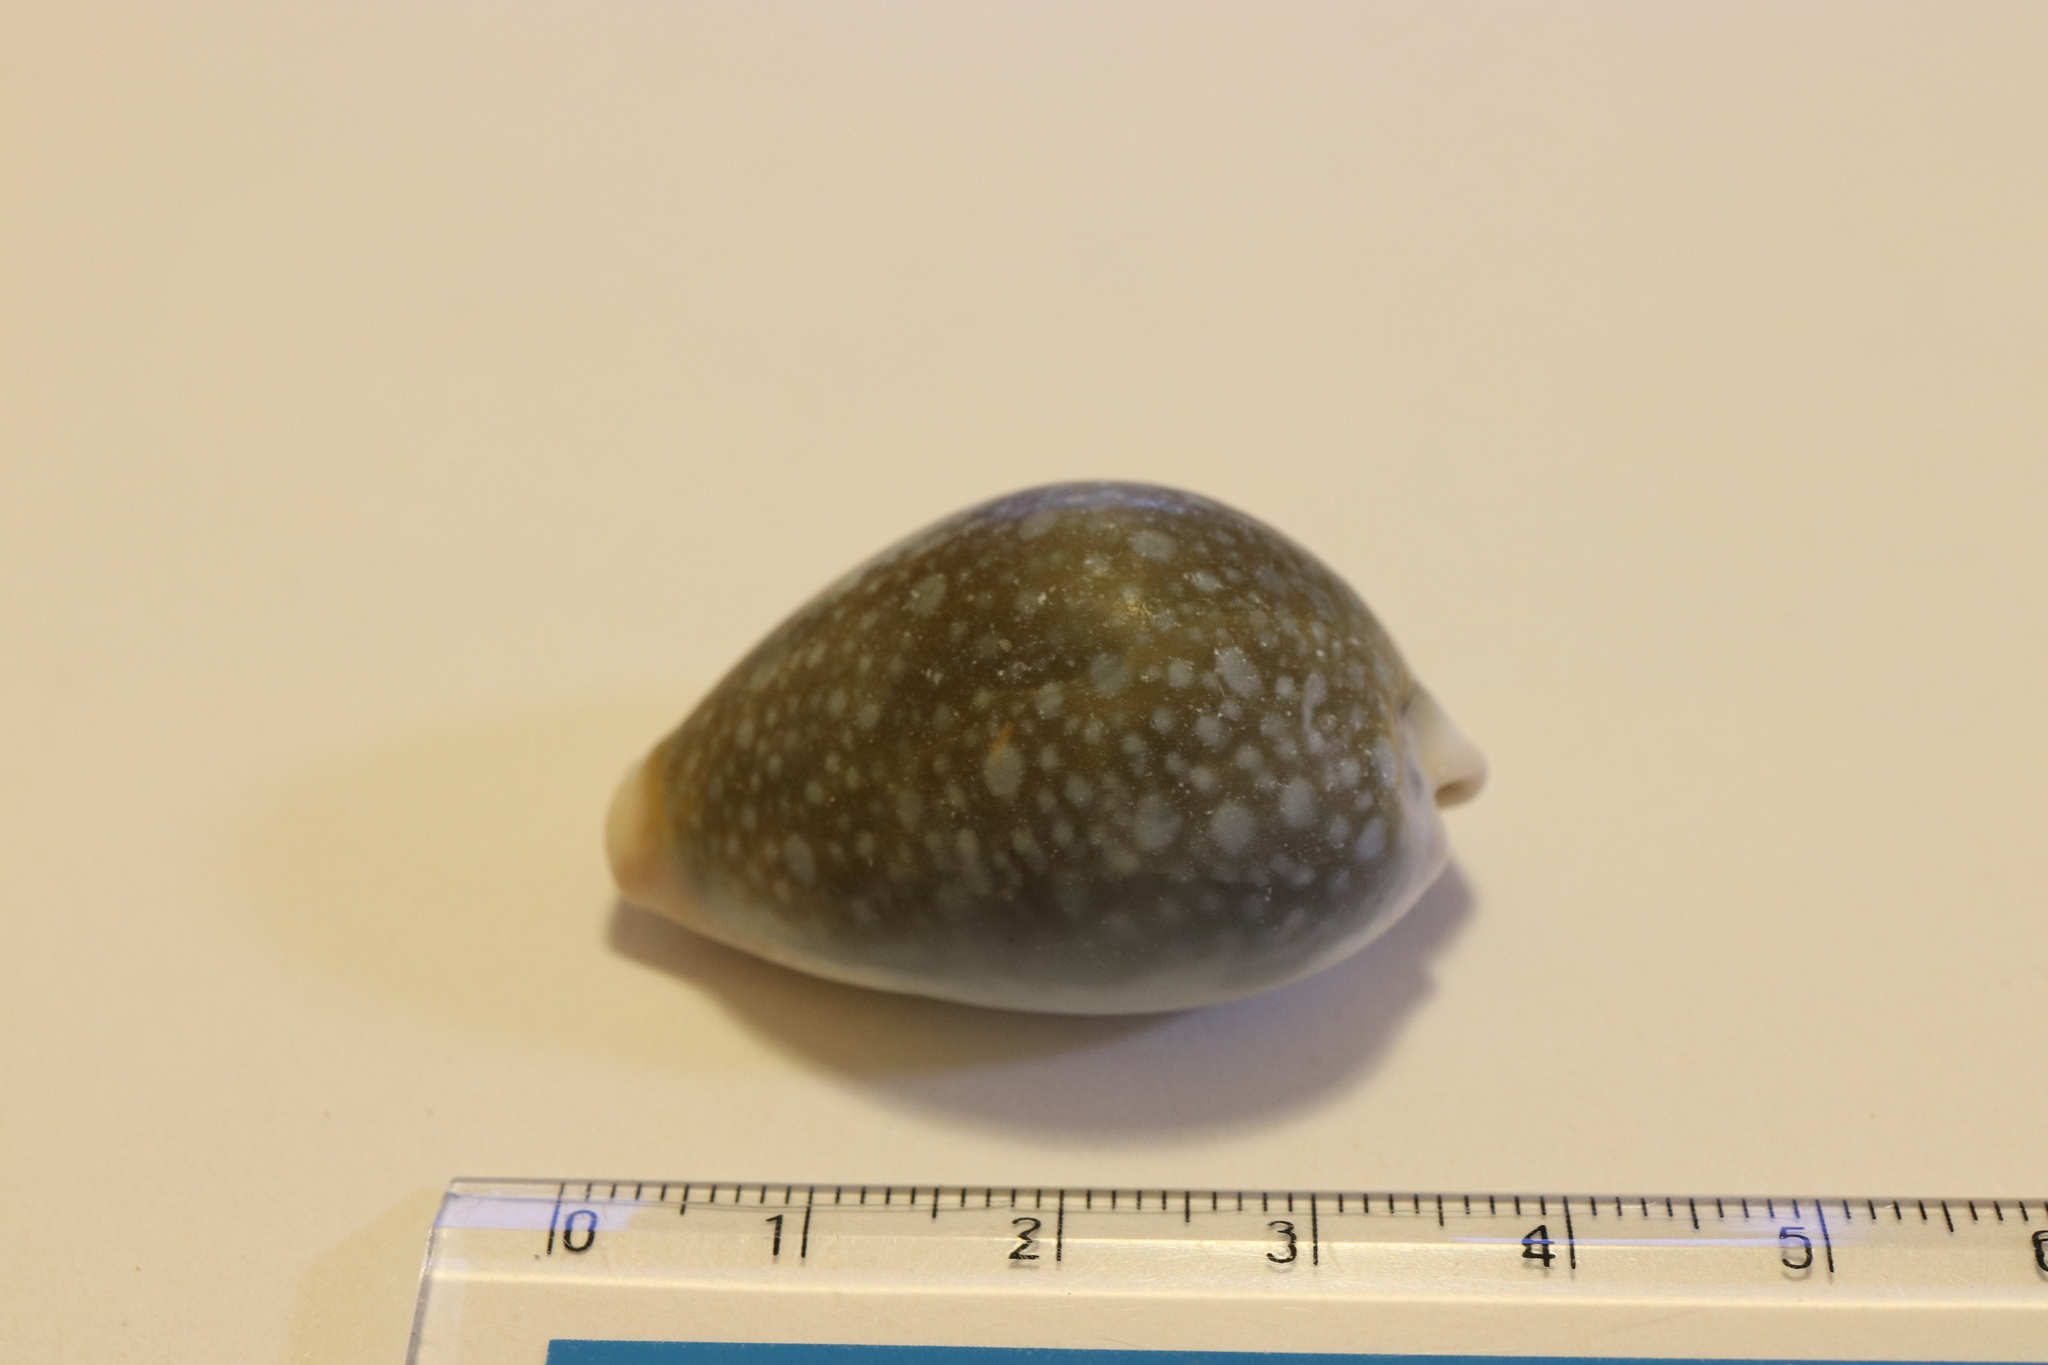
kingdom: Animalia
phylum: Mollusca
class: Gastropoda
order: Littorinimorpha
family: Cypraeidae
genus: Naria
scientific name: Naria miliaris
